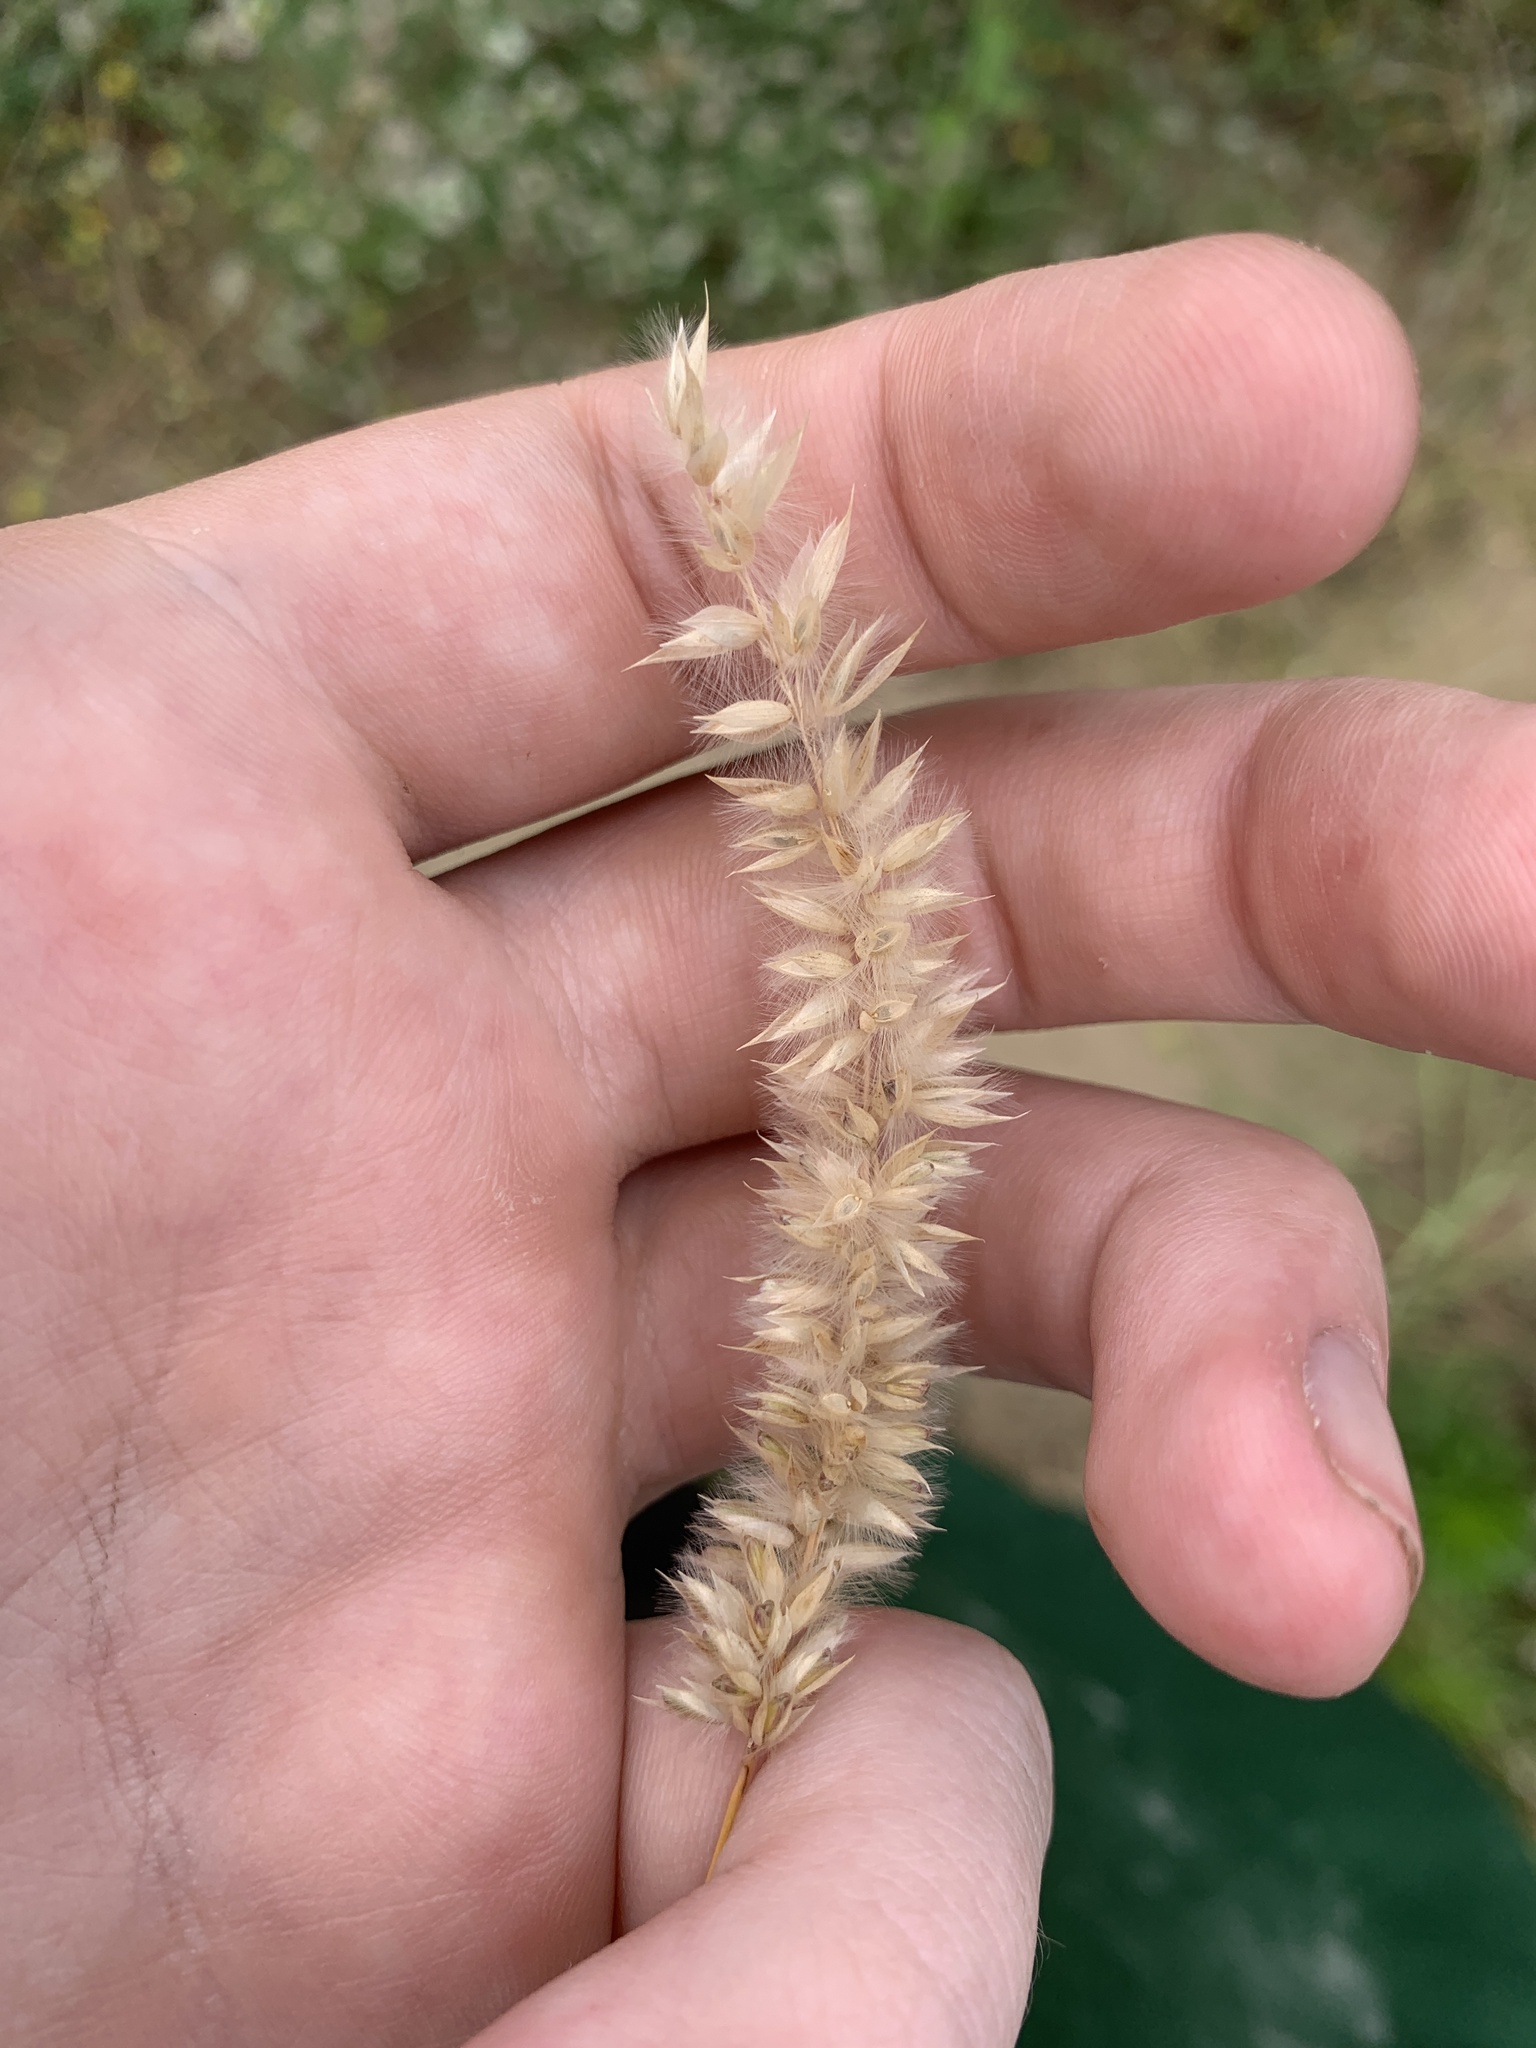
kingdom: Plantae
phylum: Tracheophyta
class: Liliopsida
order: Poales
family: Poaceae
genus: Melica
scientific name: Melica transsilvanica
